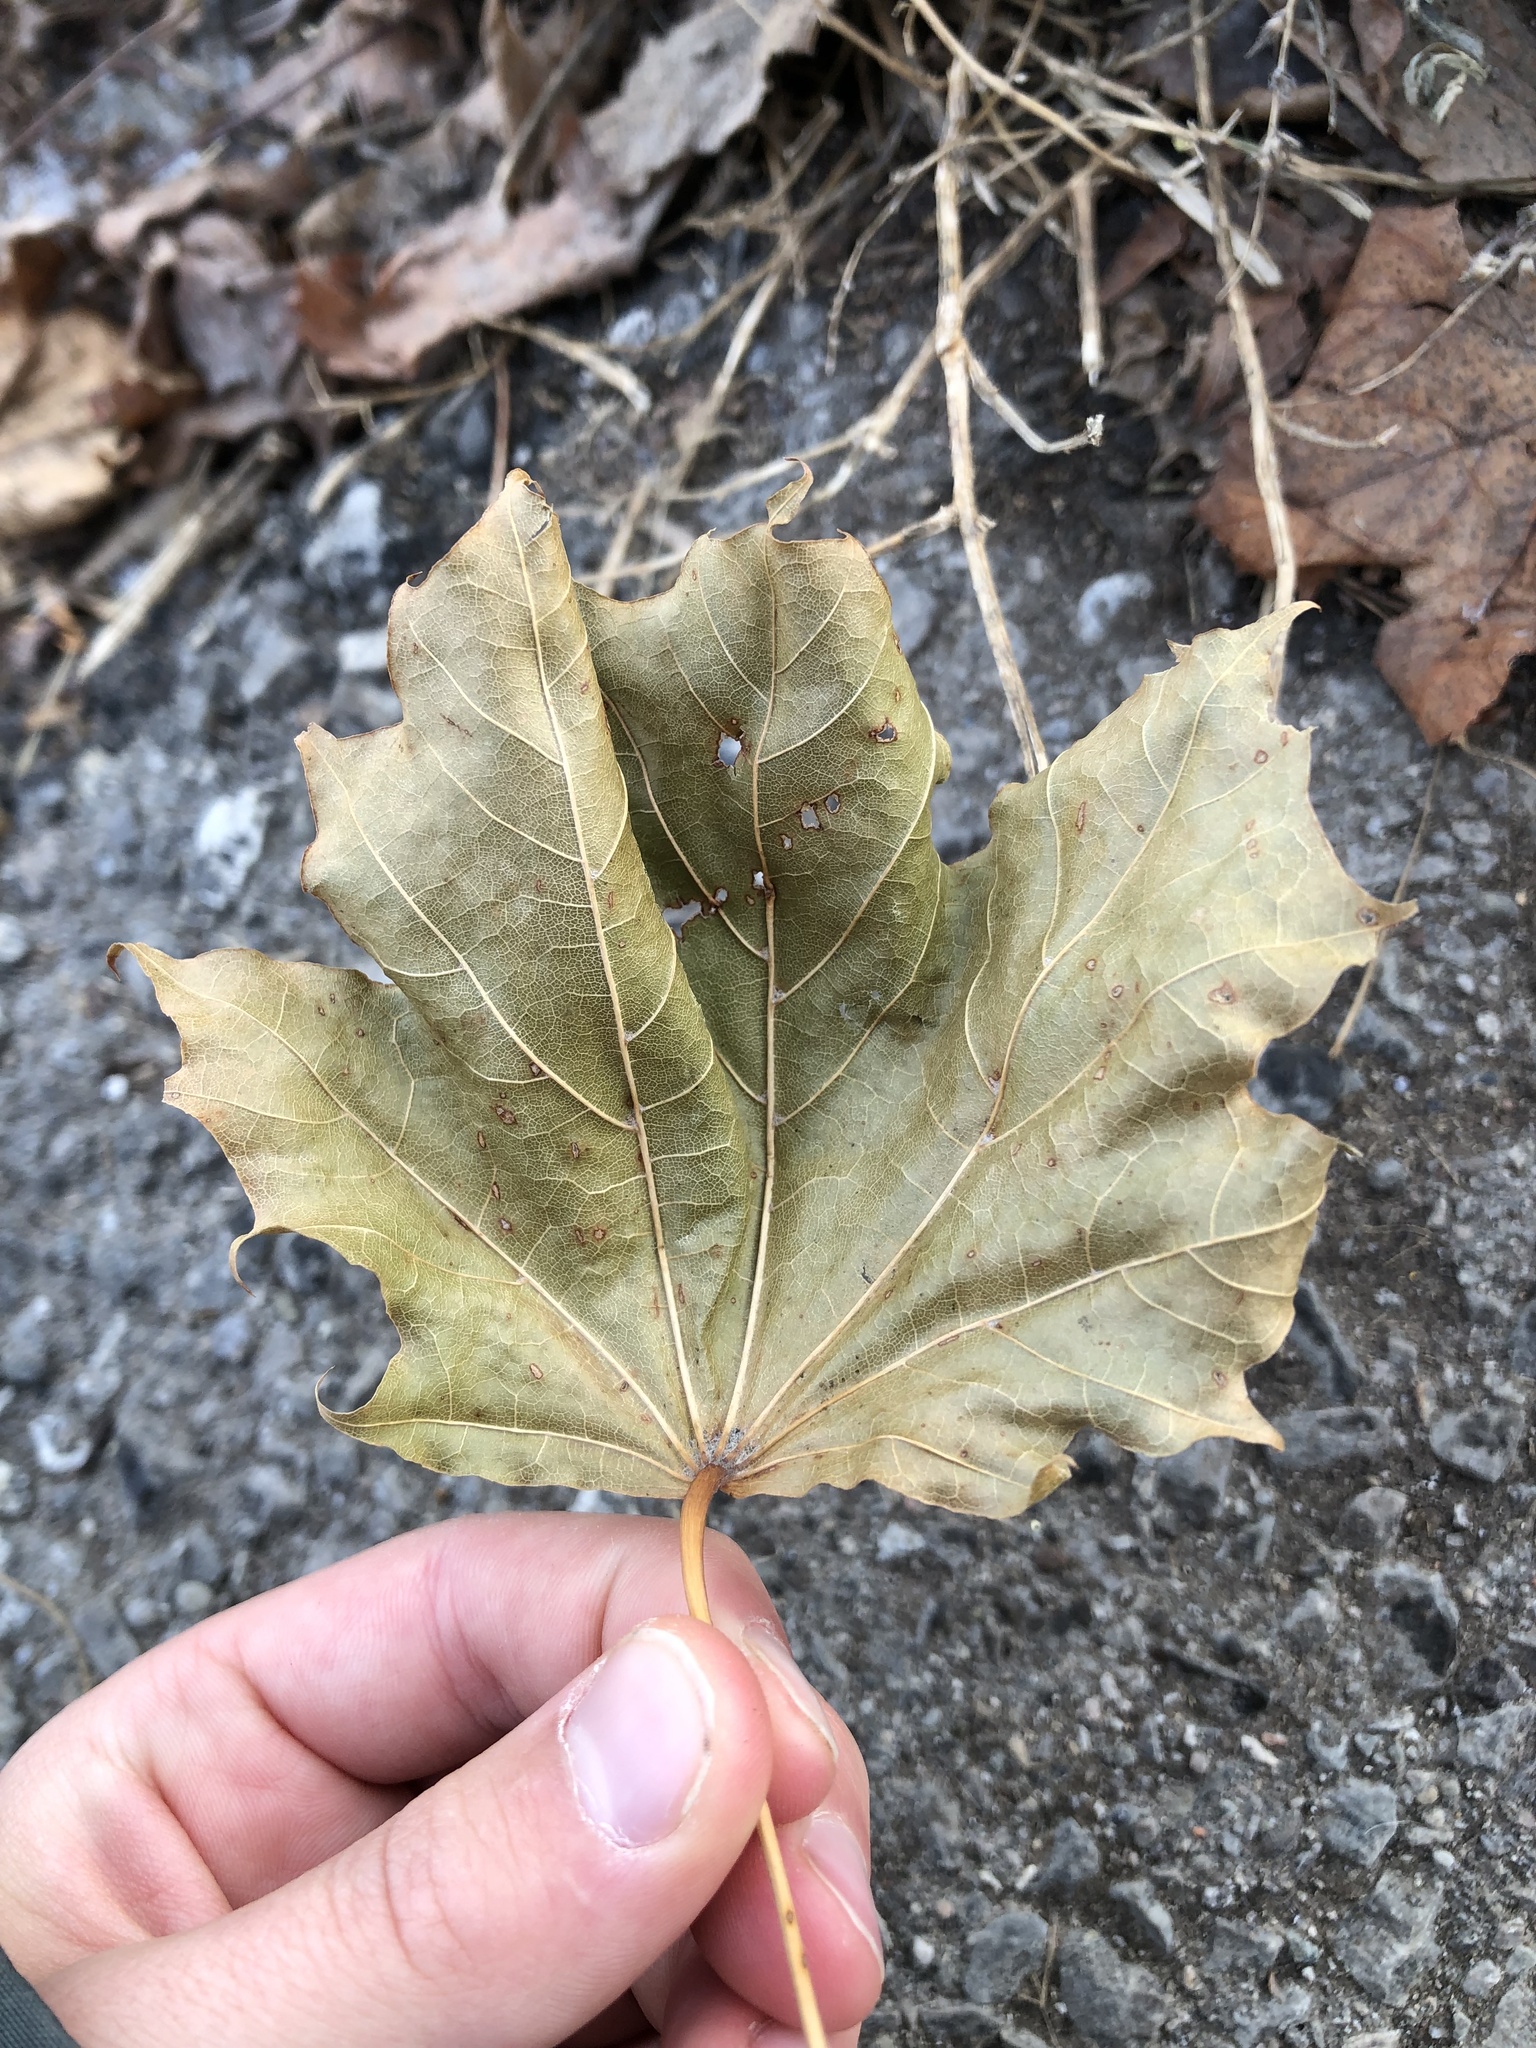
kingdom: Plantae
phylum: Tracheophyta
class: Magnoliopsida
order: Sapindales
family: Sapindaceae
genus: Acer
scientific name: Acer platanoides
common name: Norway maple
